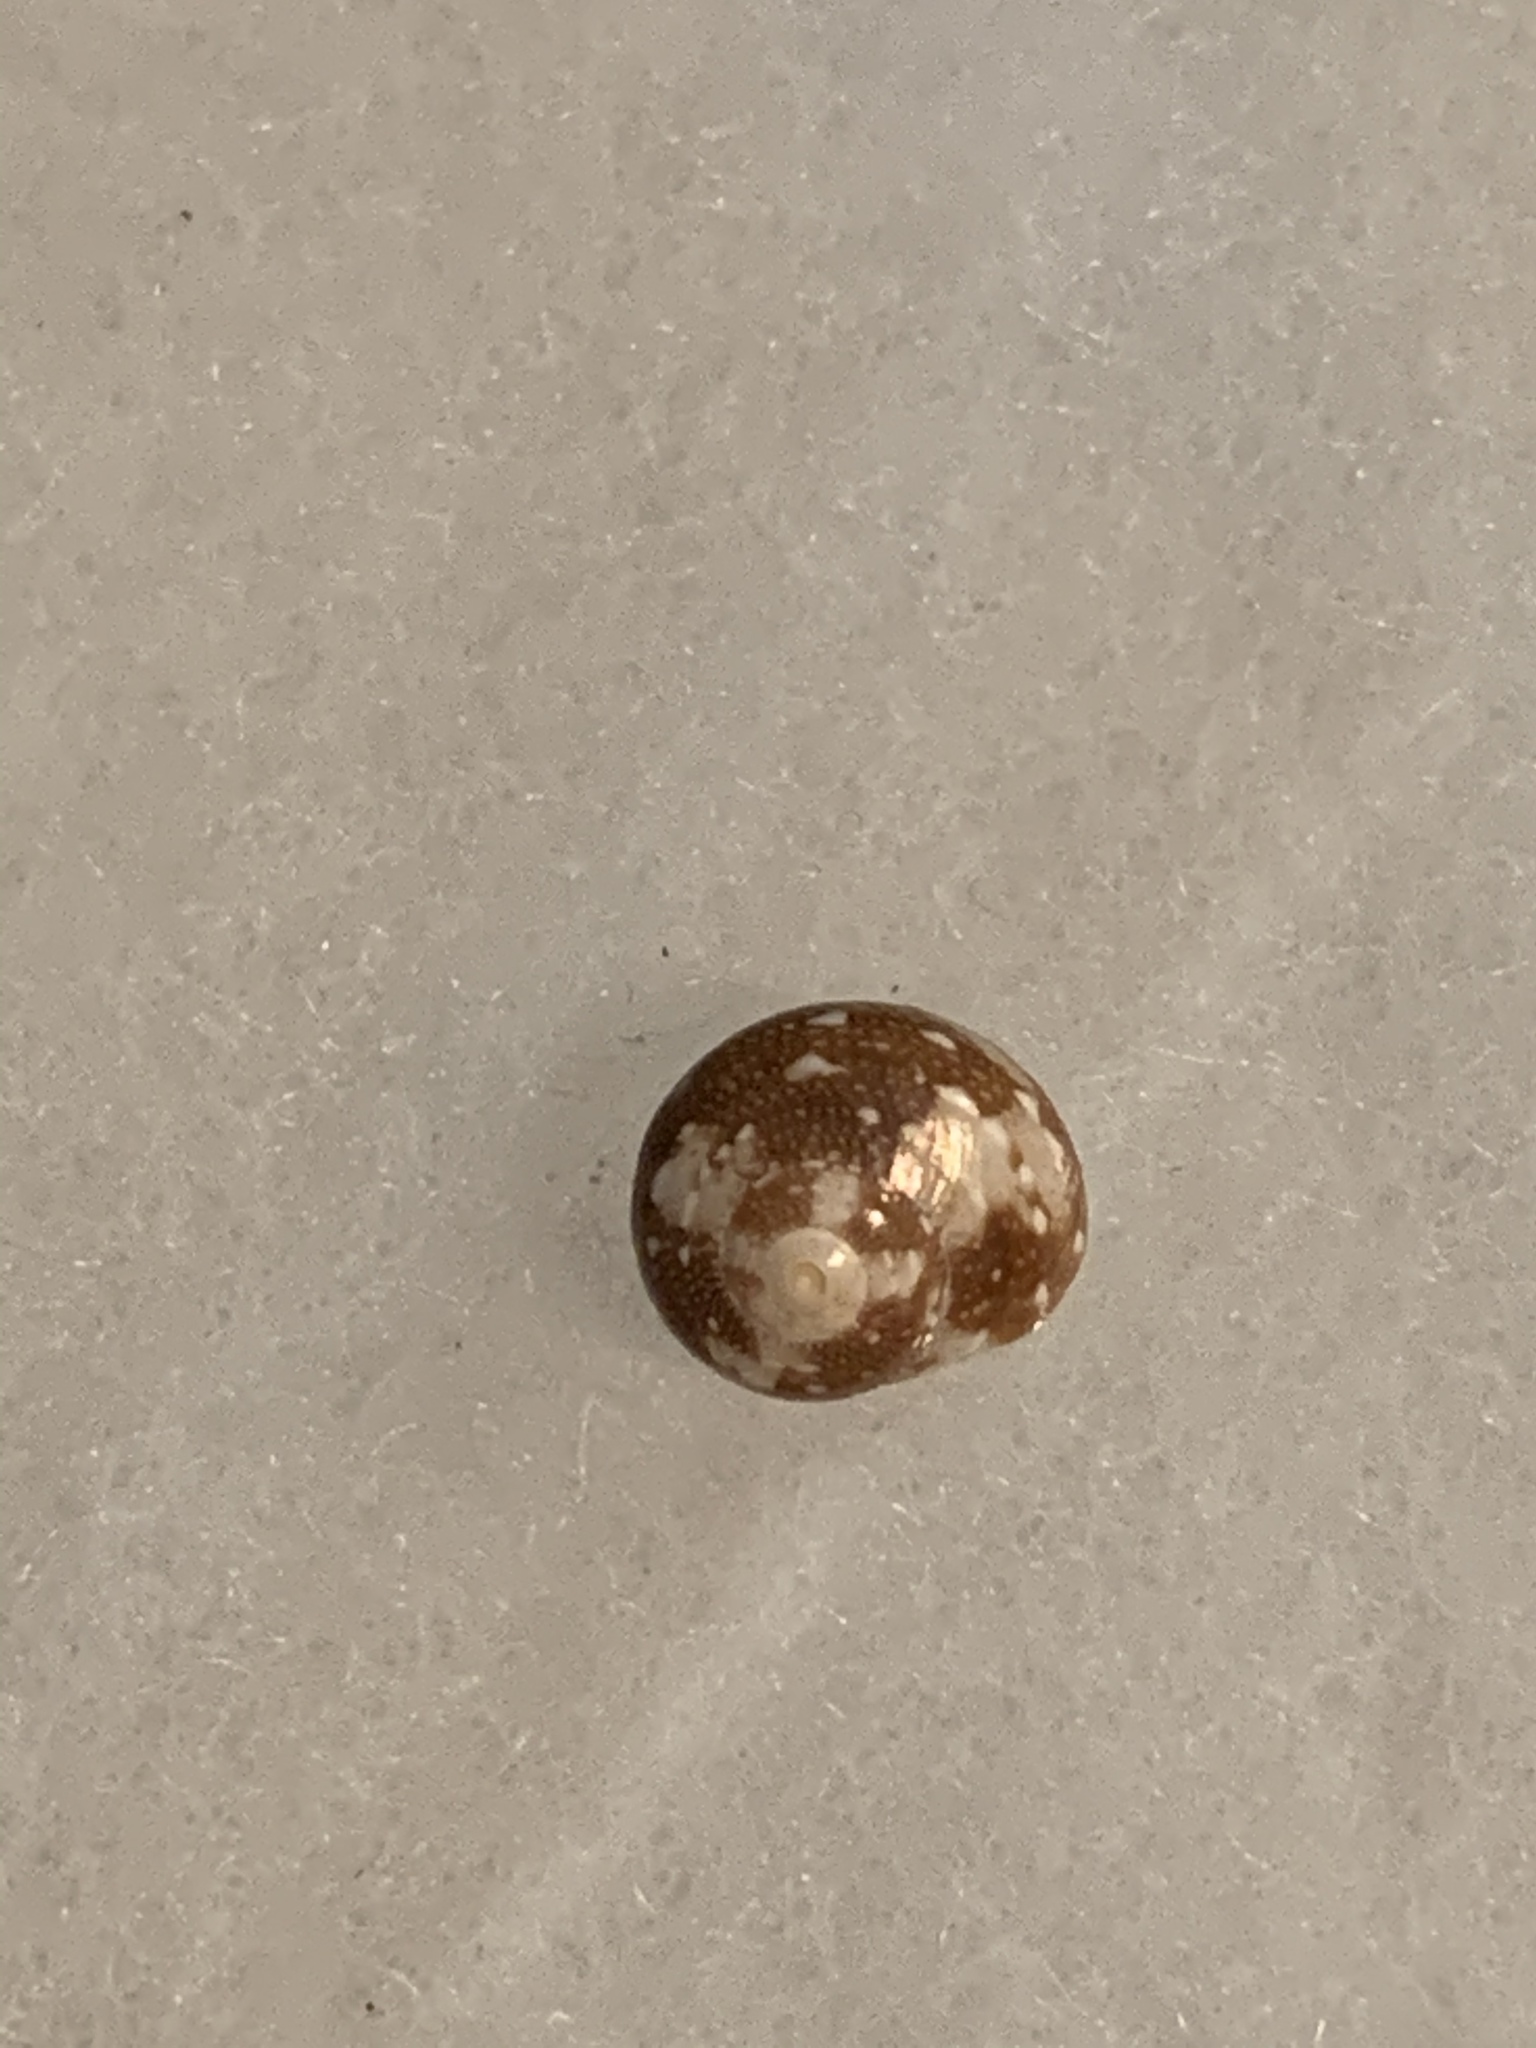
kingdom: Animalia
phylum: Mollusca
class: Gastropoda
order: Trochida
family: Tegulidae
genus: Agathistoma
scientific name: Agathistoma fasciatum
